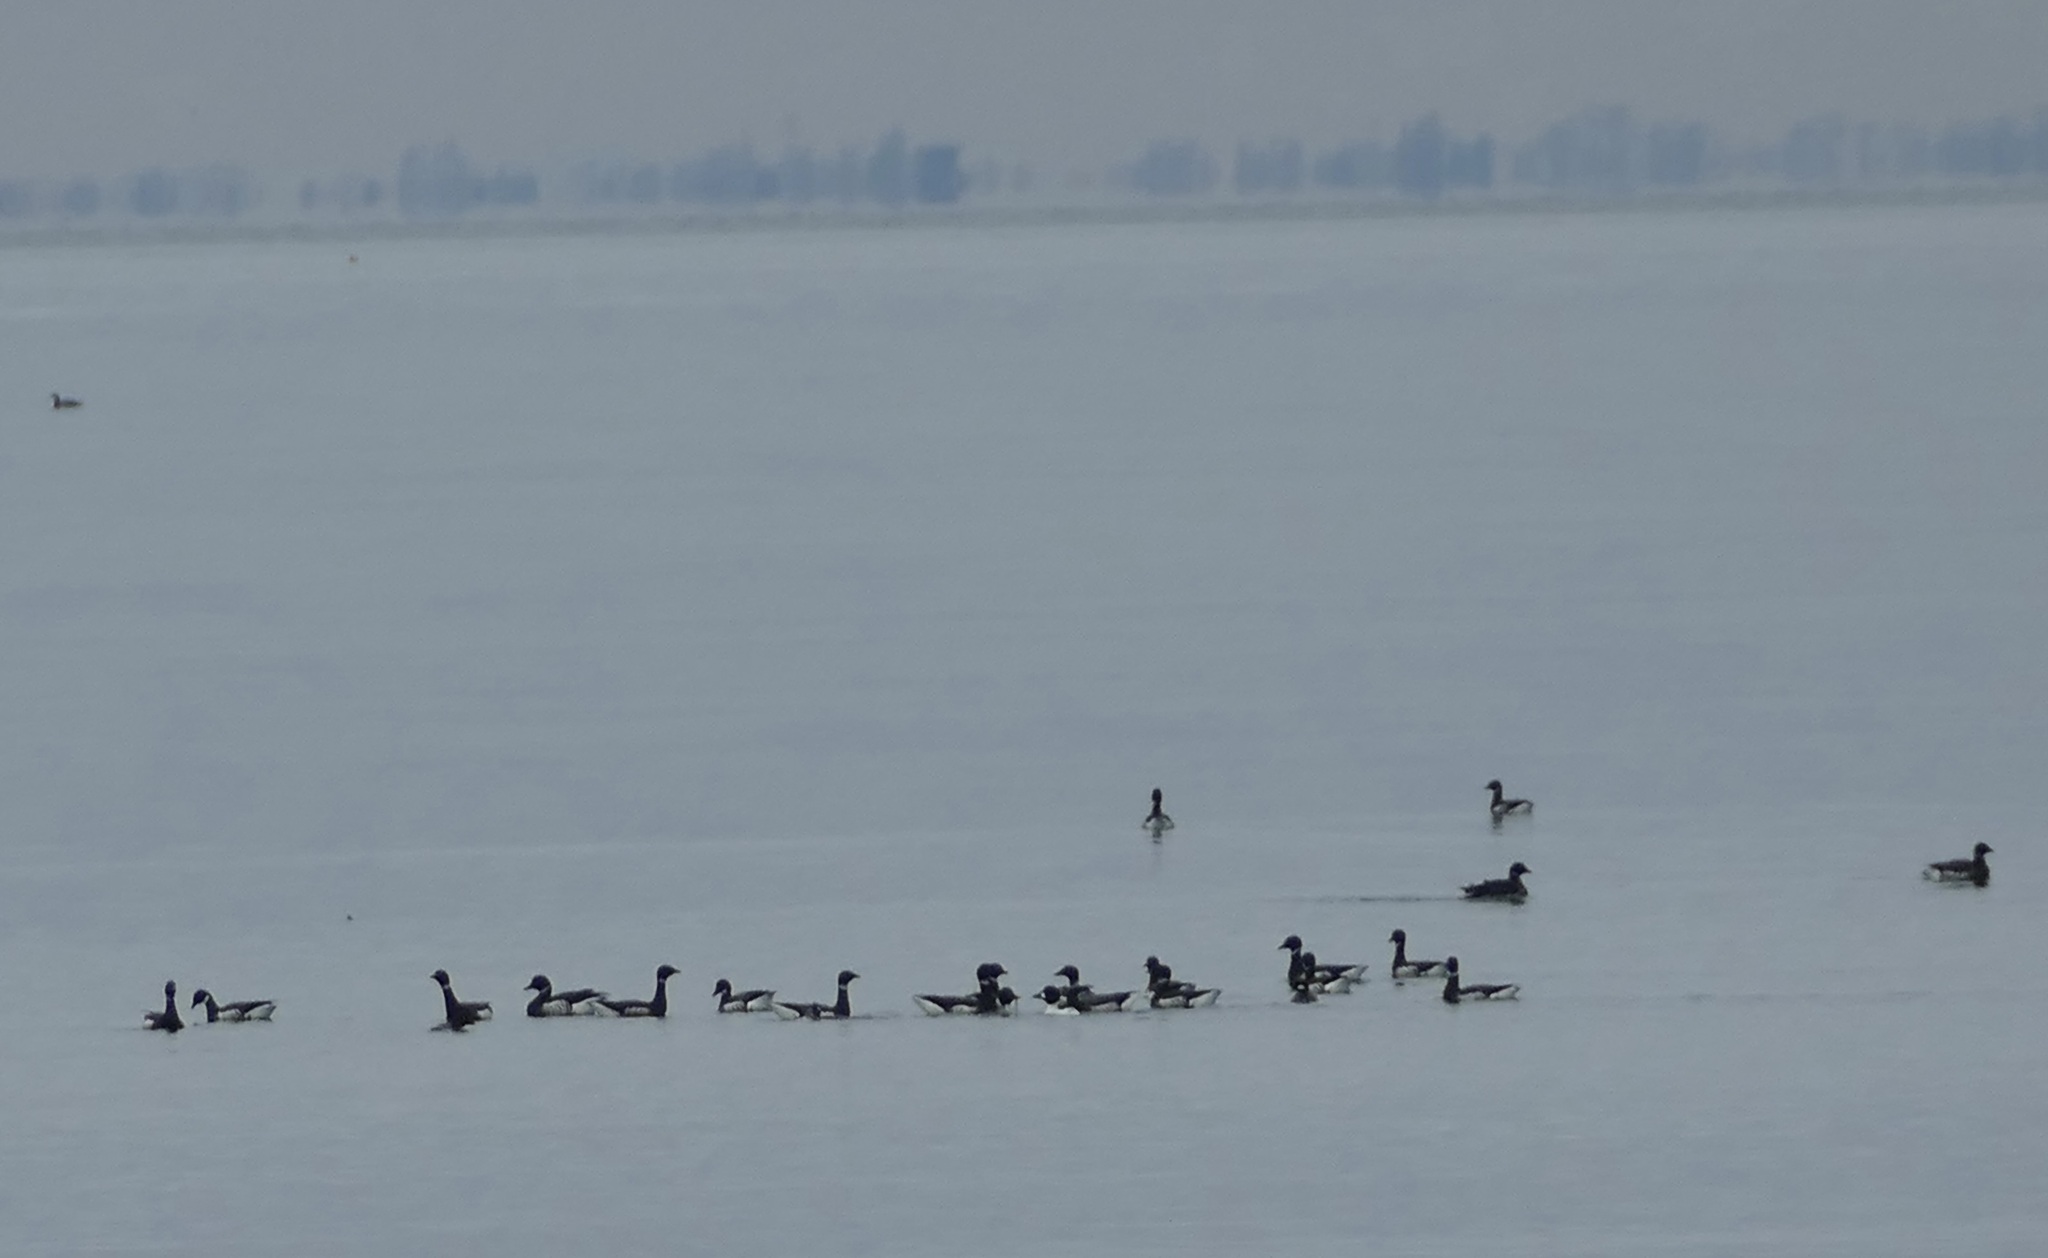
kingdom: Animalia
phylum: Chordata
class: Aves
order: Anseriformes
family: Anatidae
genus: Branta
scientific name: Branta bernicla
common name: Brant goose
